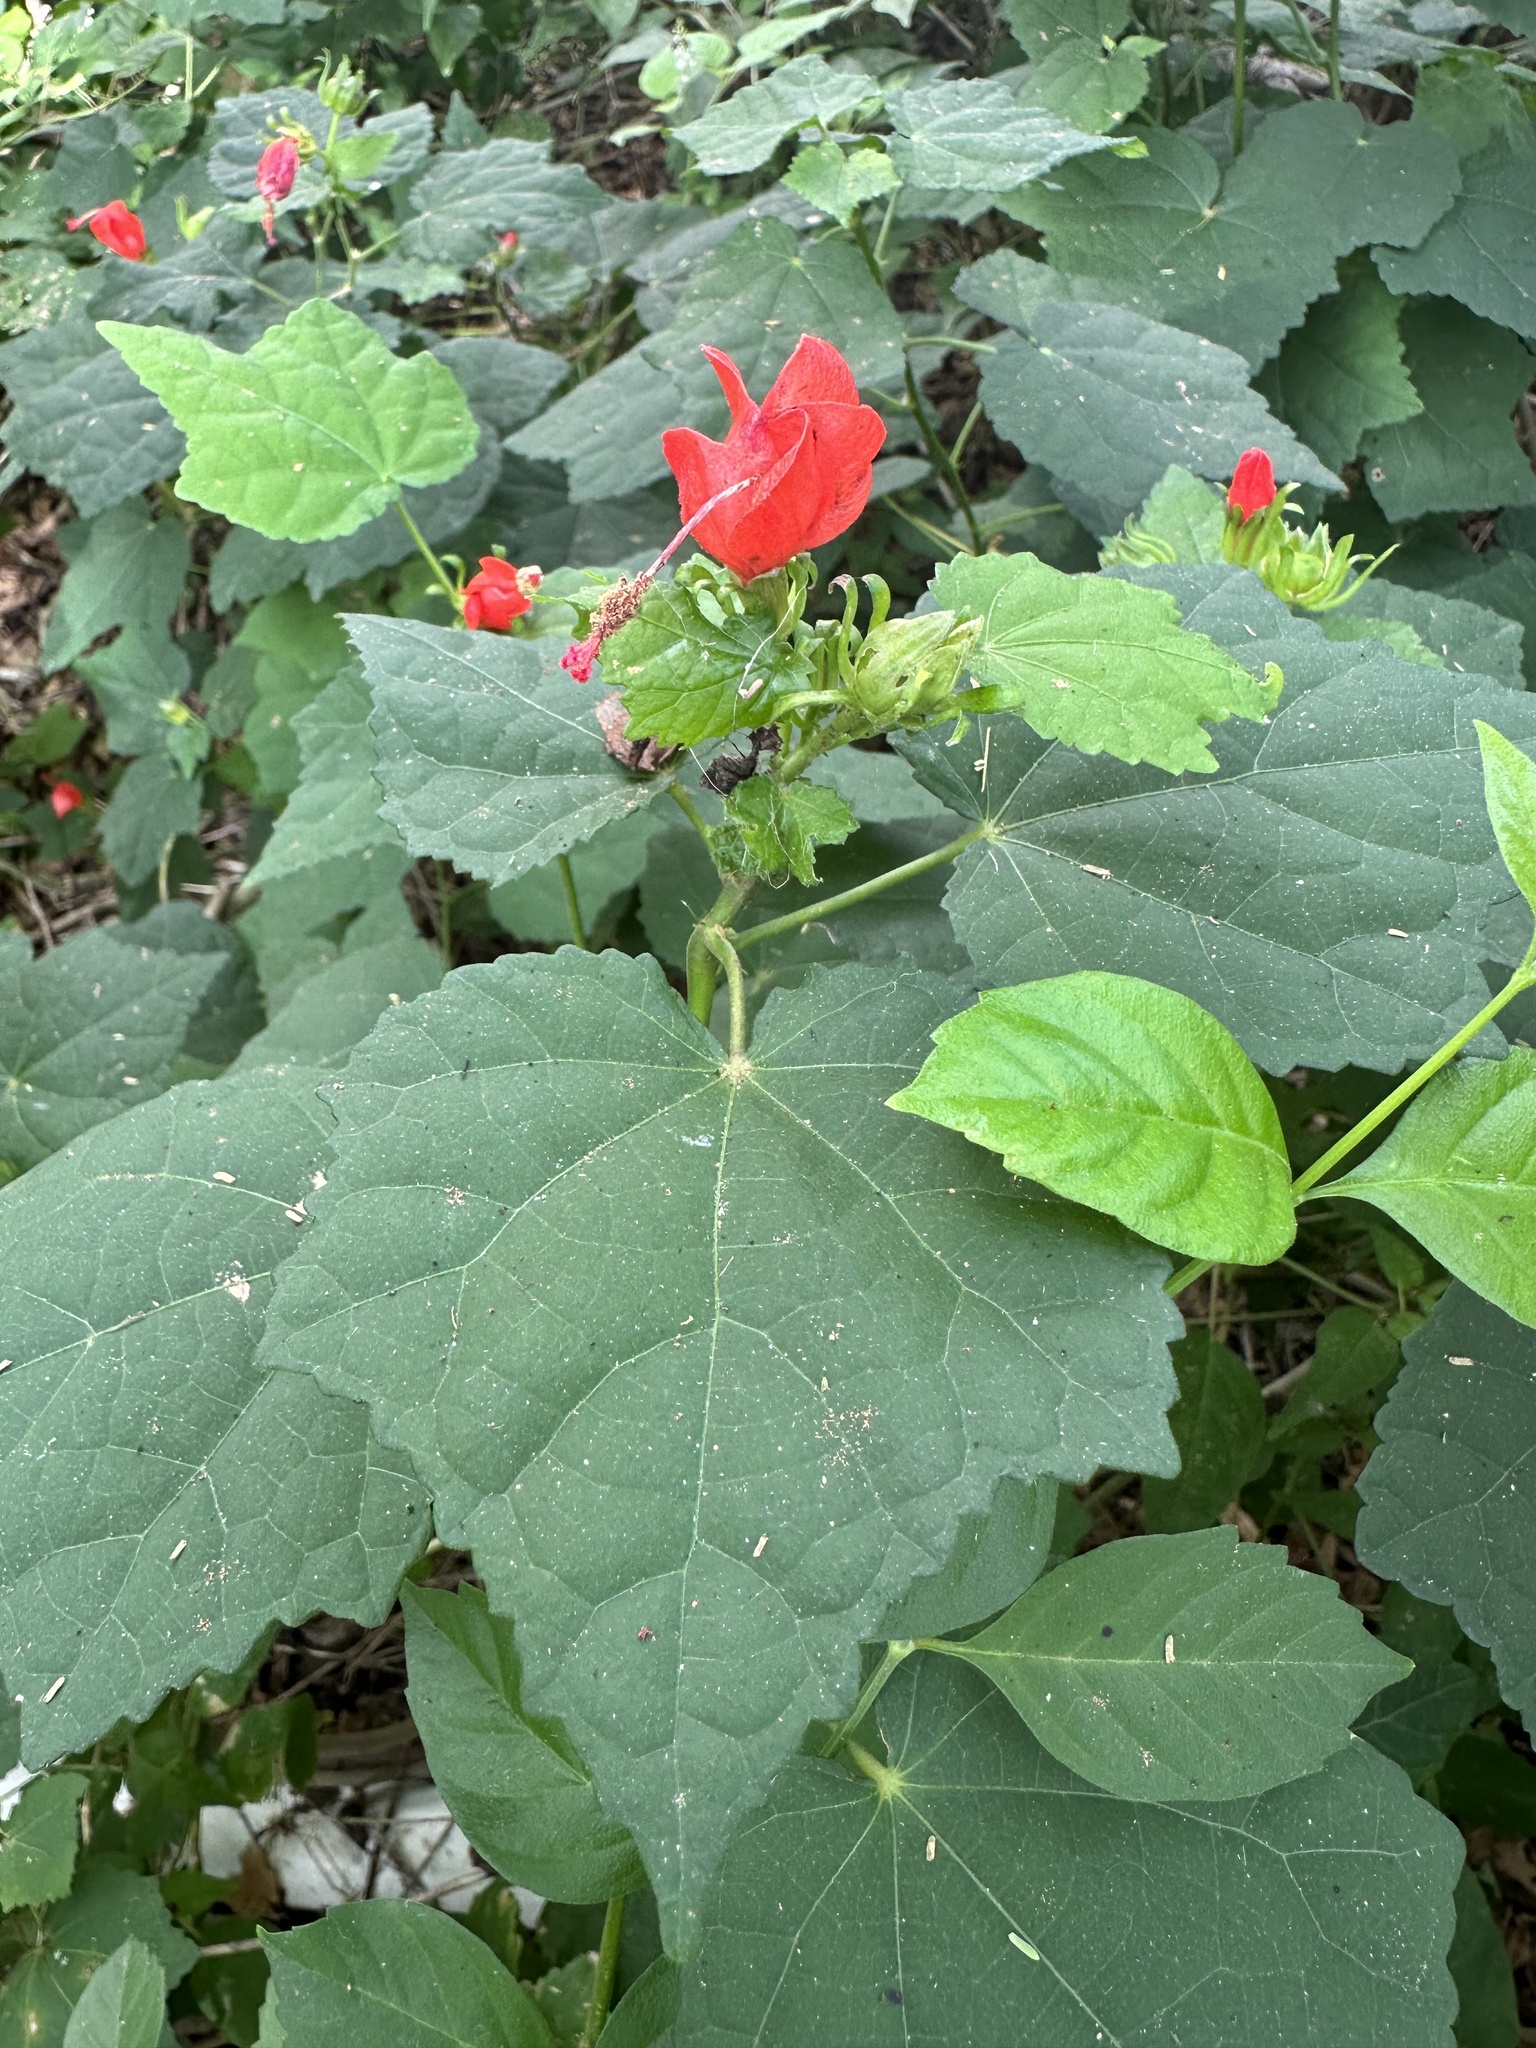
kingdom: Plantae
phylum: Tracheophyta
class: Magnoliopsida
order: Malvales
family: Malvaceae
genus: Malvaviscus
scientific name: Malvaviscus arboreus
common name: Wax mallow
